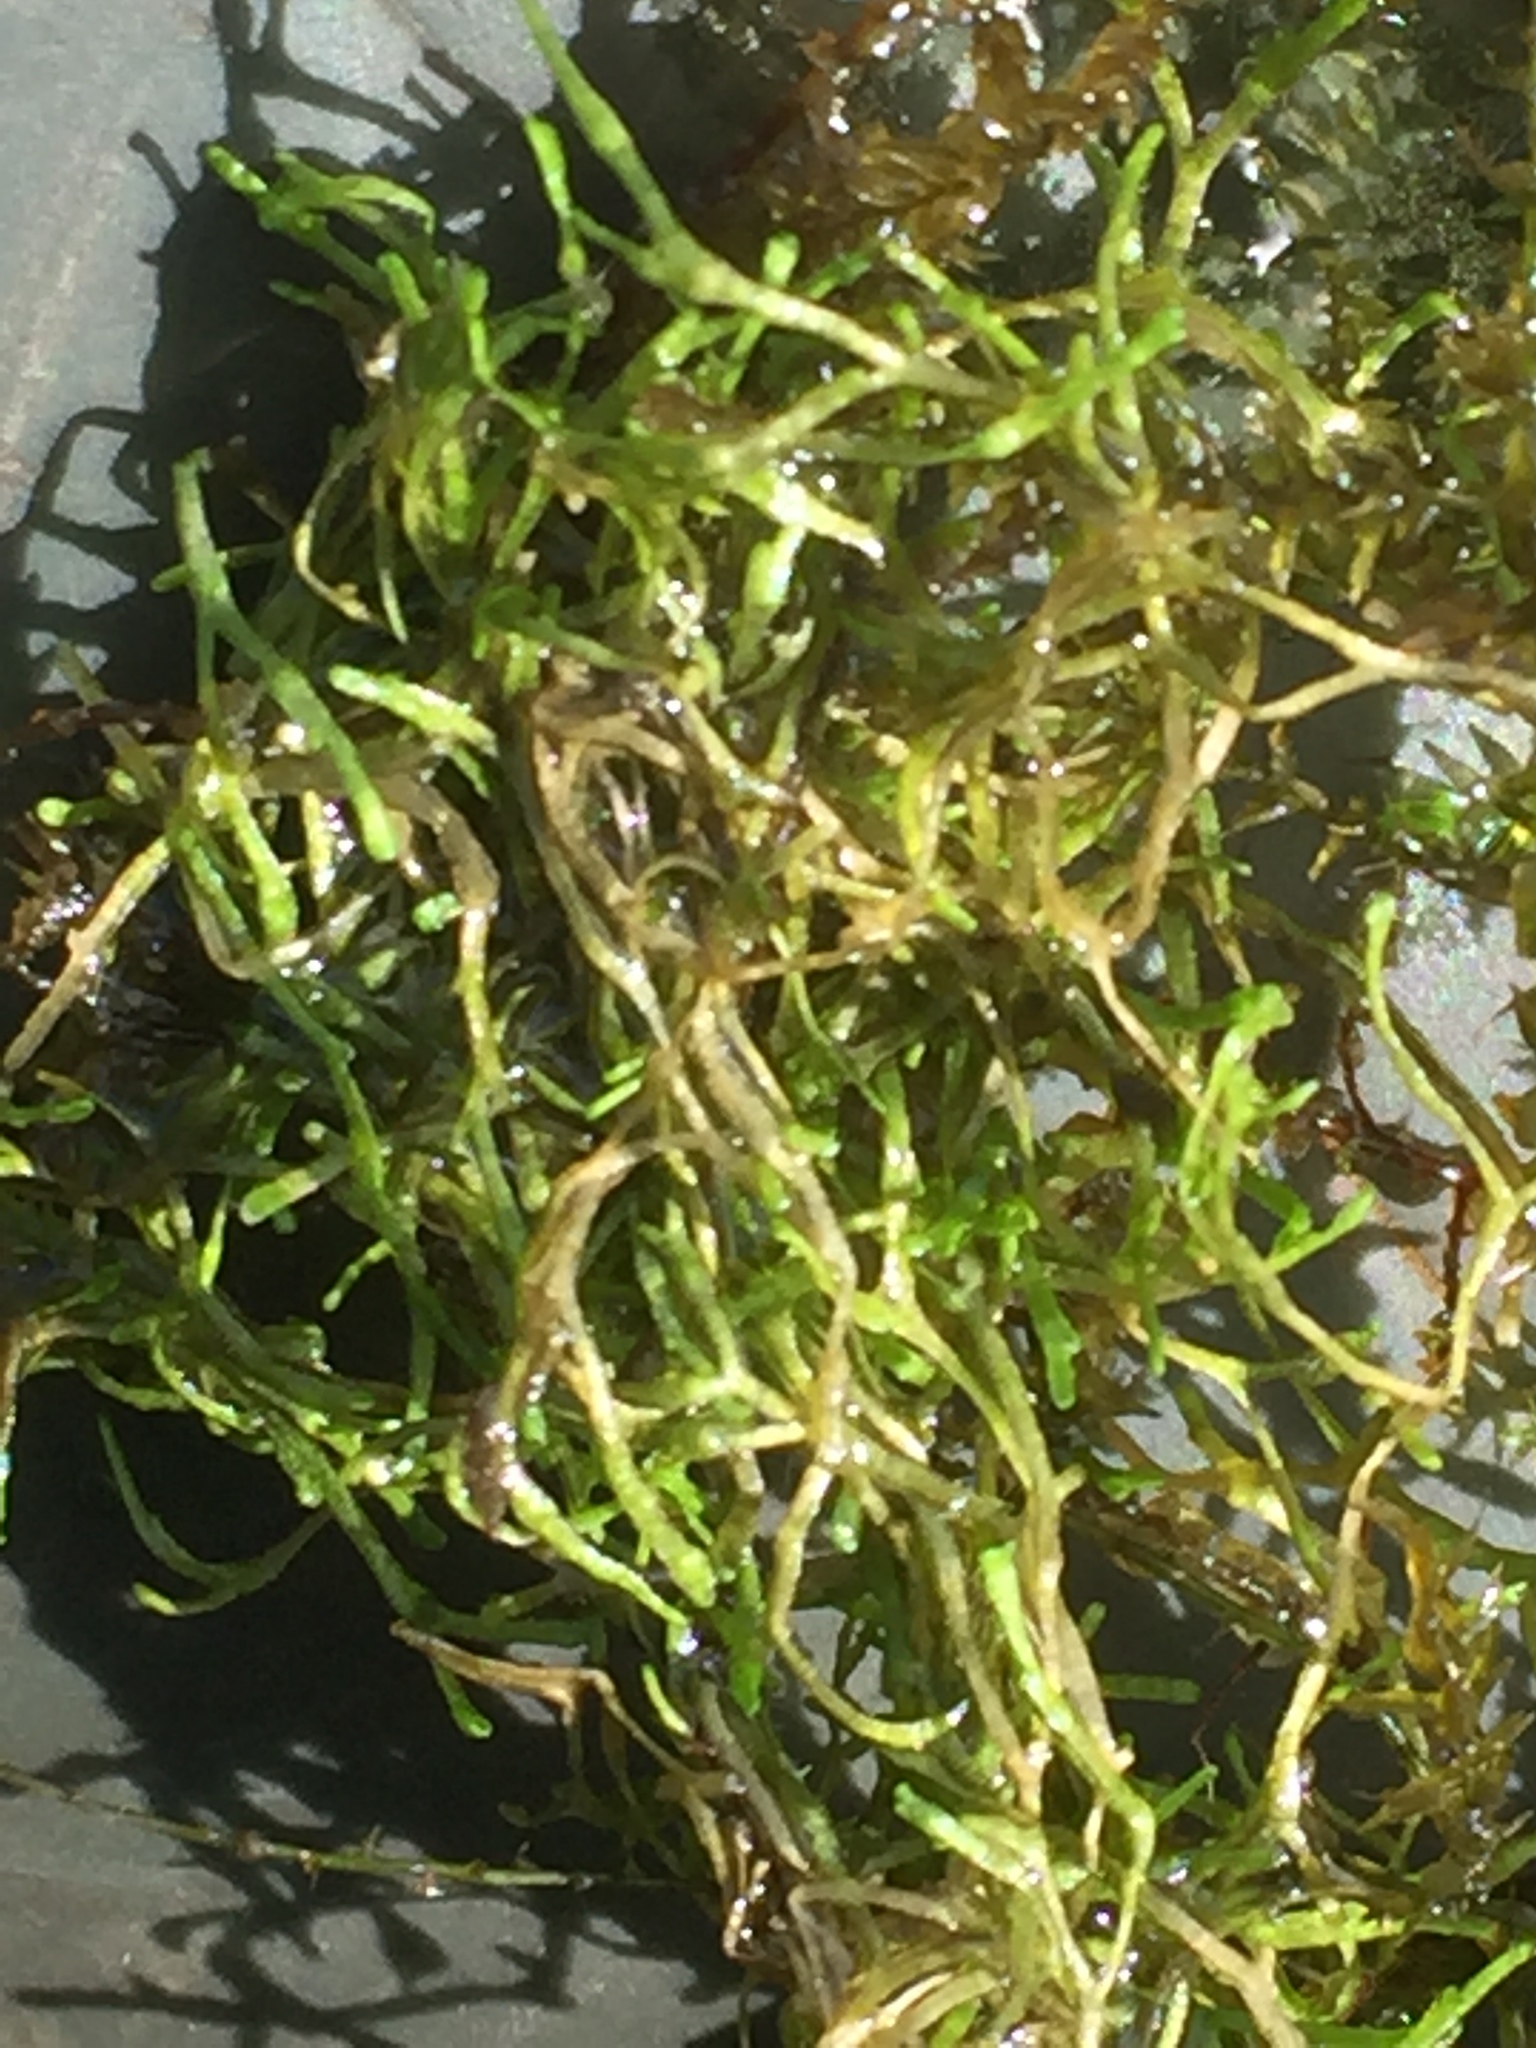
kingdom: Plantae
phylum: Marchantiophyta
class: Marchantiopsida
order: Marchantiales
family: Ricciaceae
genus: Riccia
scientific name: Riccia fluitans
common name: Floating crystalwort
